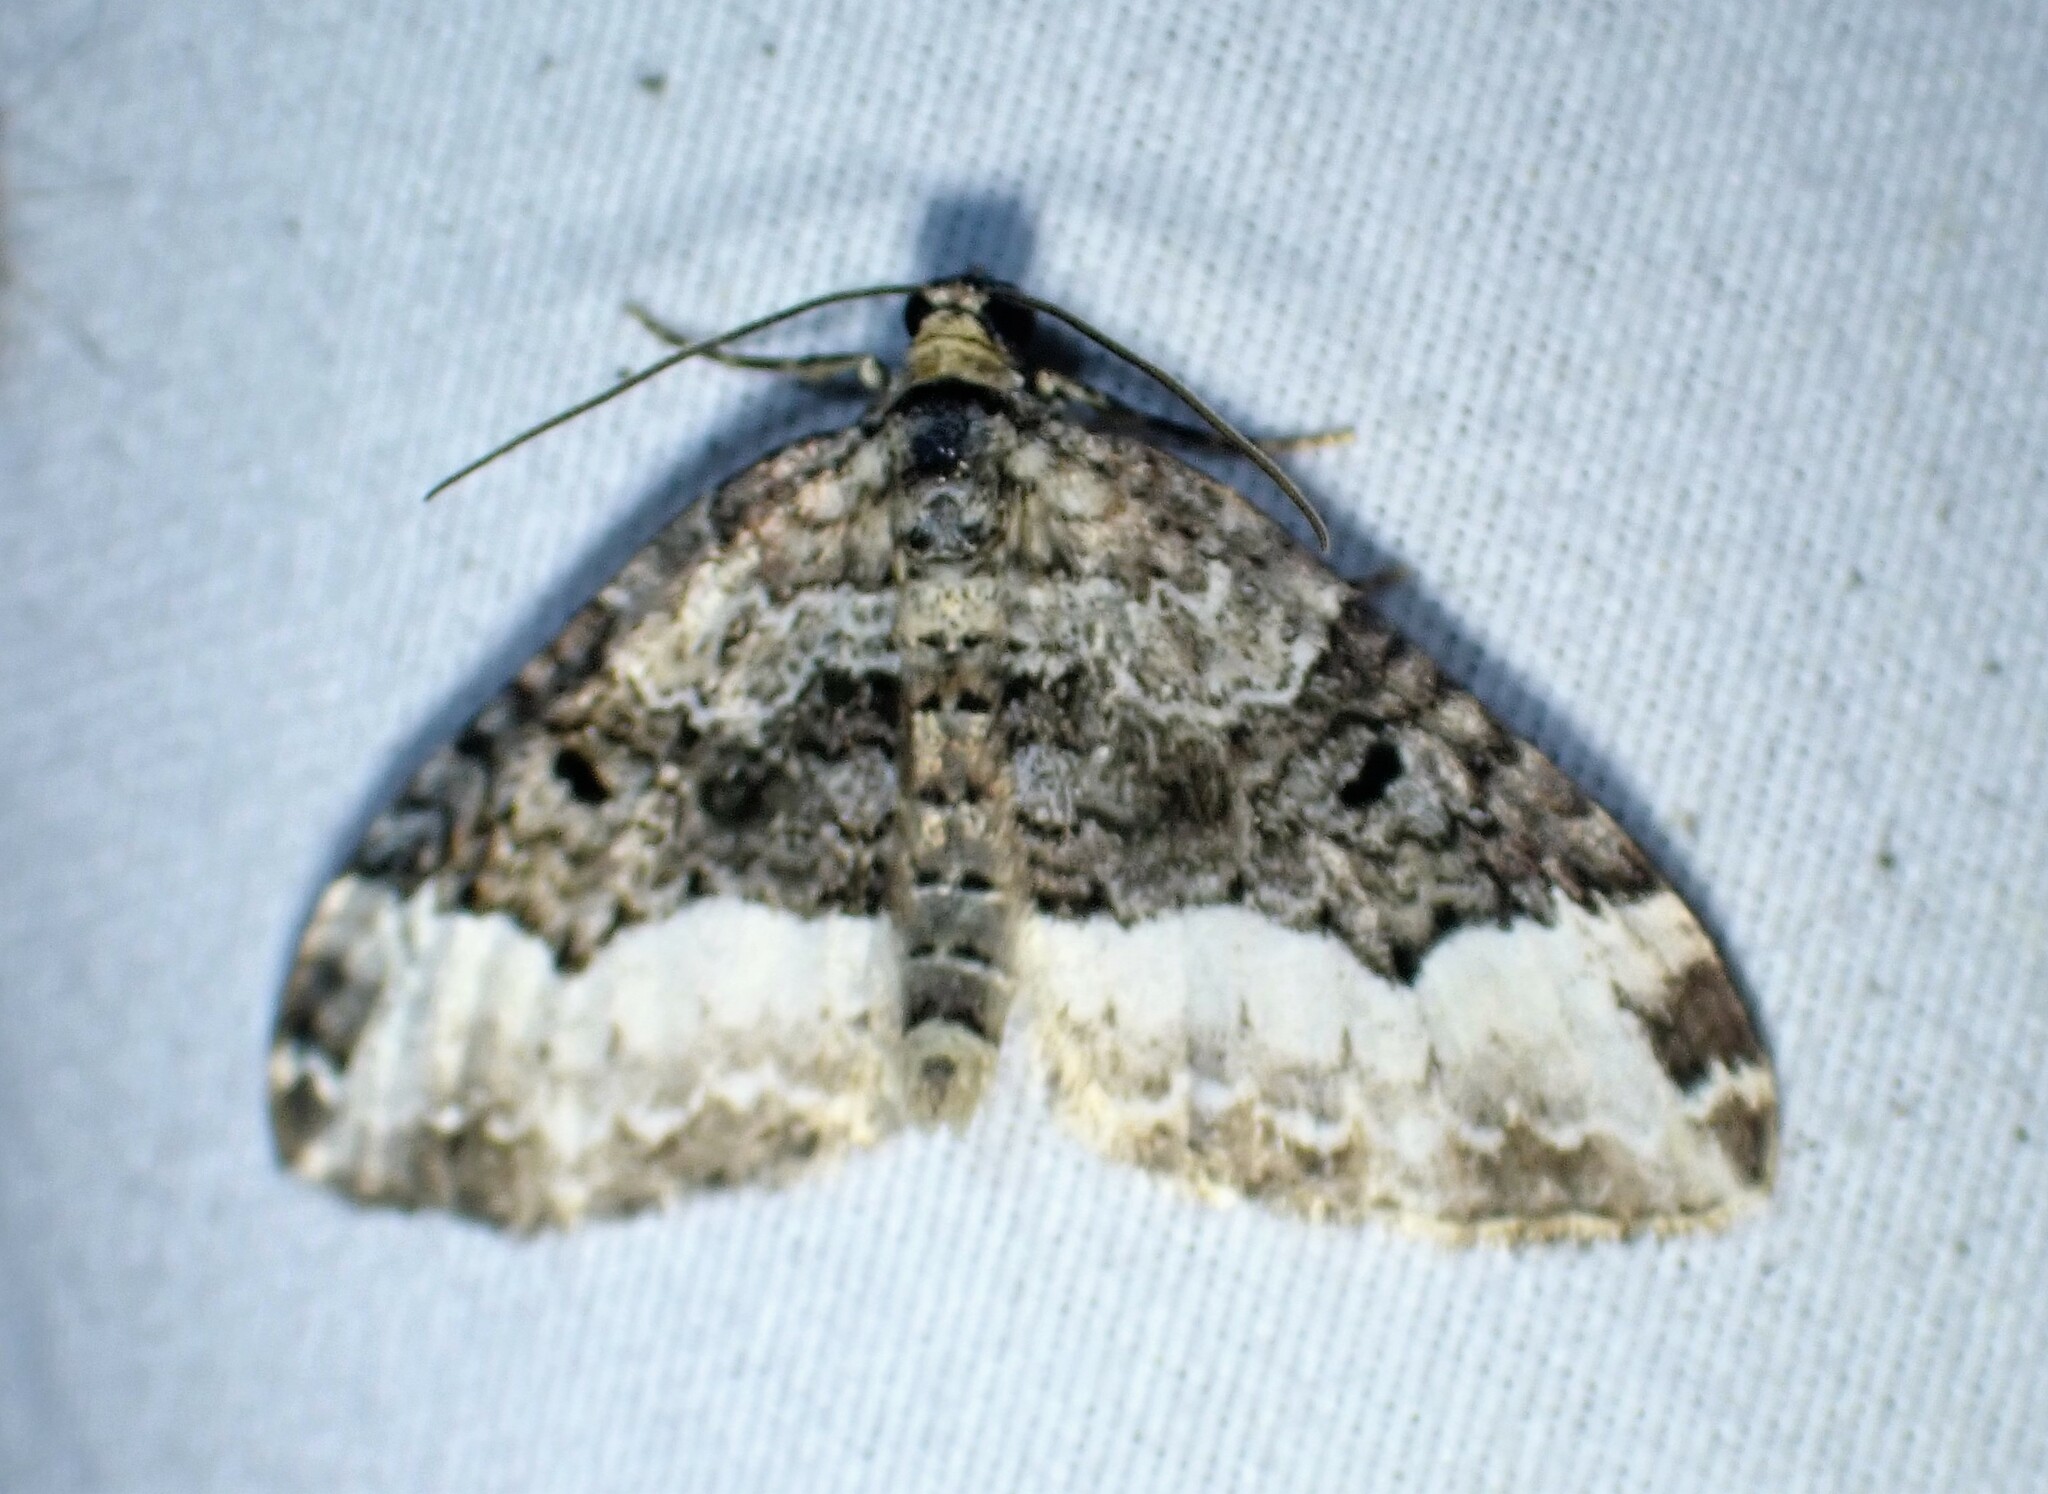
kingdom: Animalia
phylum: Arthropoda
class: Insecta
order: Lepidoptera
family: Geometridae
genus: Euphyia
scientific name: Euphyia intermediata
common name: Sharp-angled carpet
